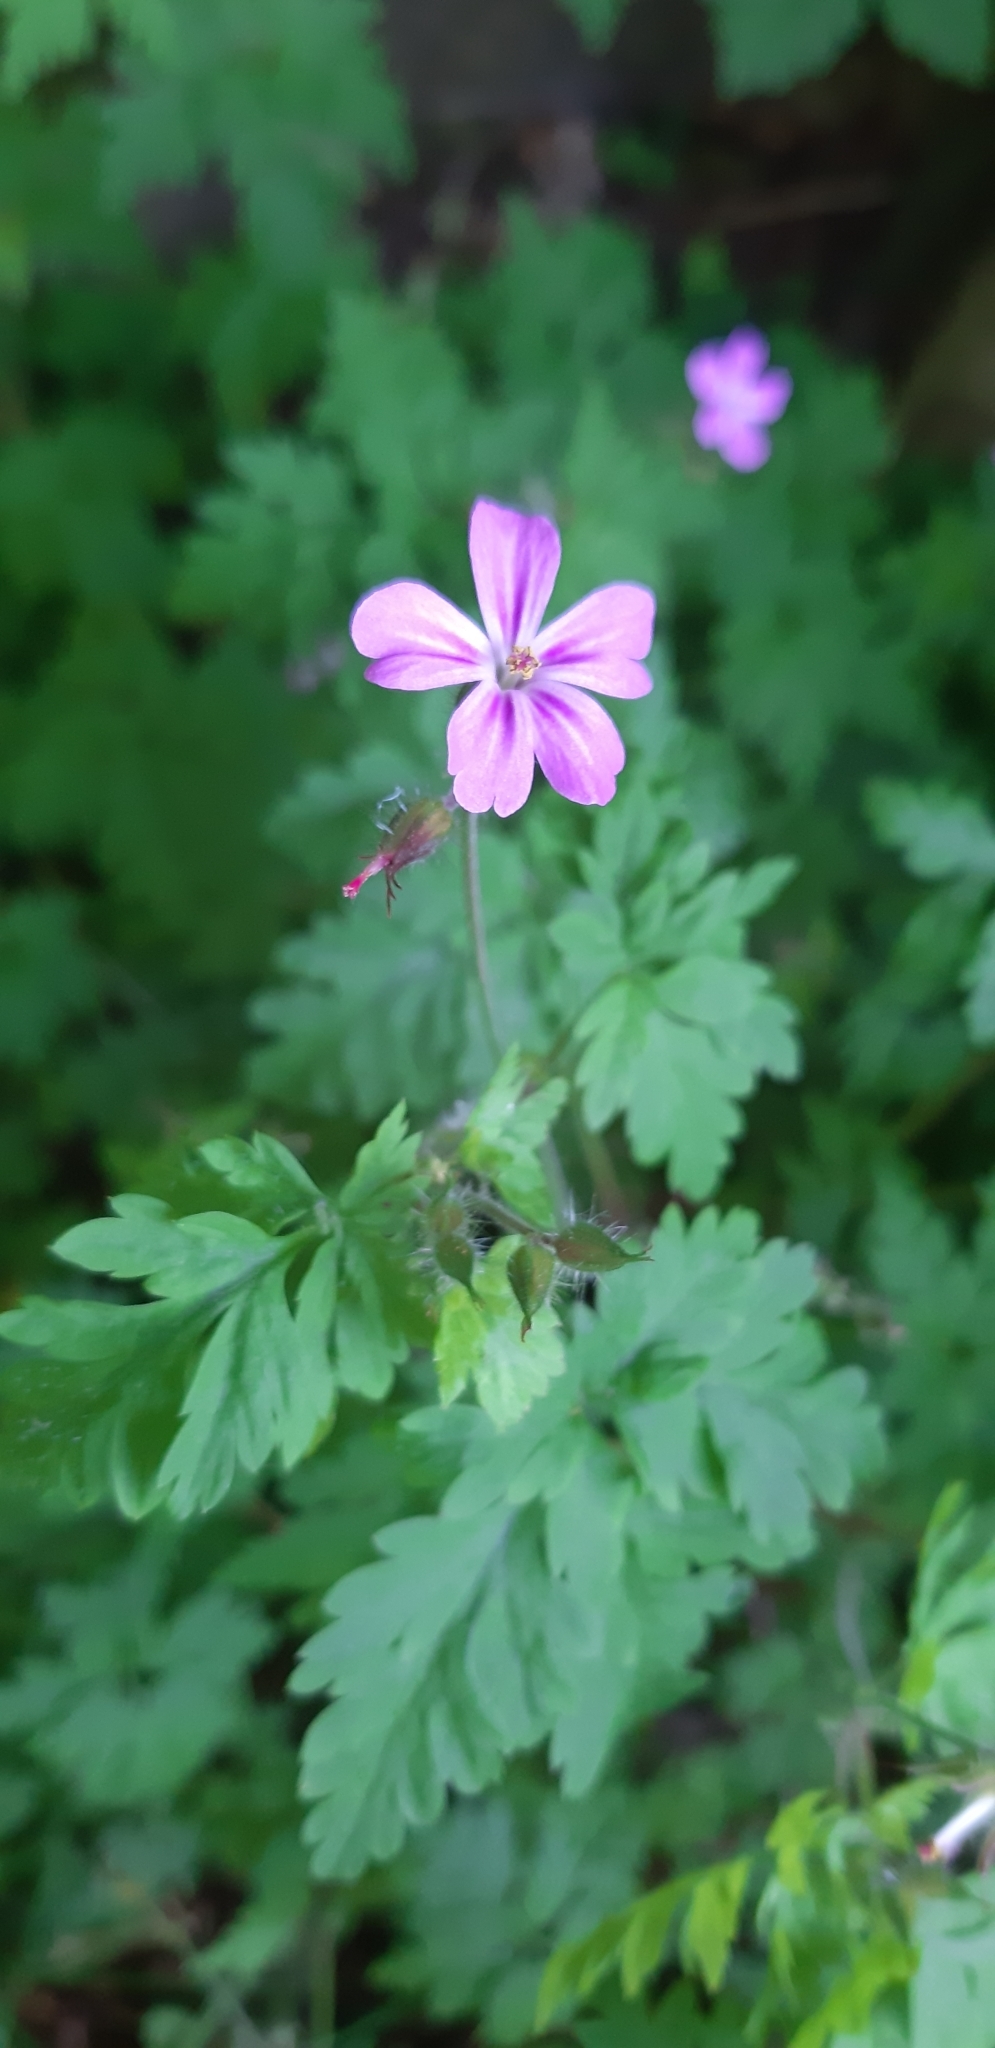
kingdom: Plantae
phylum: Tracheophyta
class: Magnoliopsida
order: Geraniales
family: Geraniaceae
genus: Geranium
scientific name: Geranium robertianum
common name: Herb-robert
